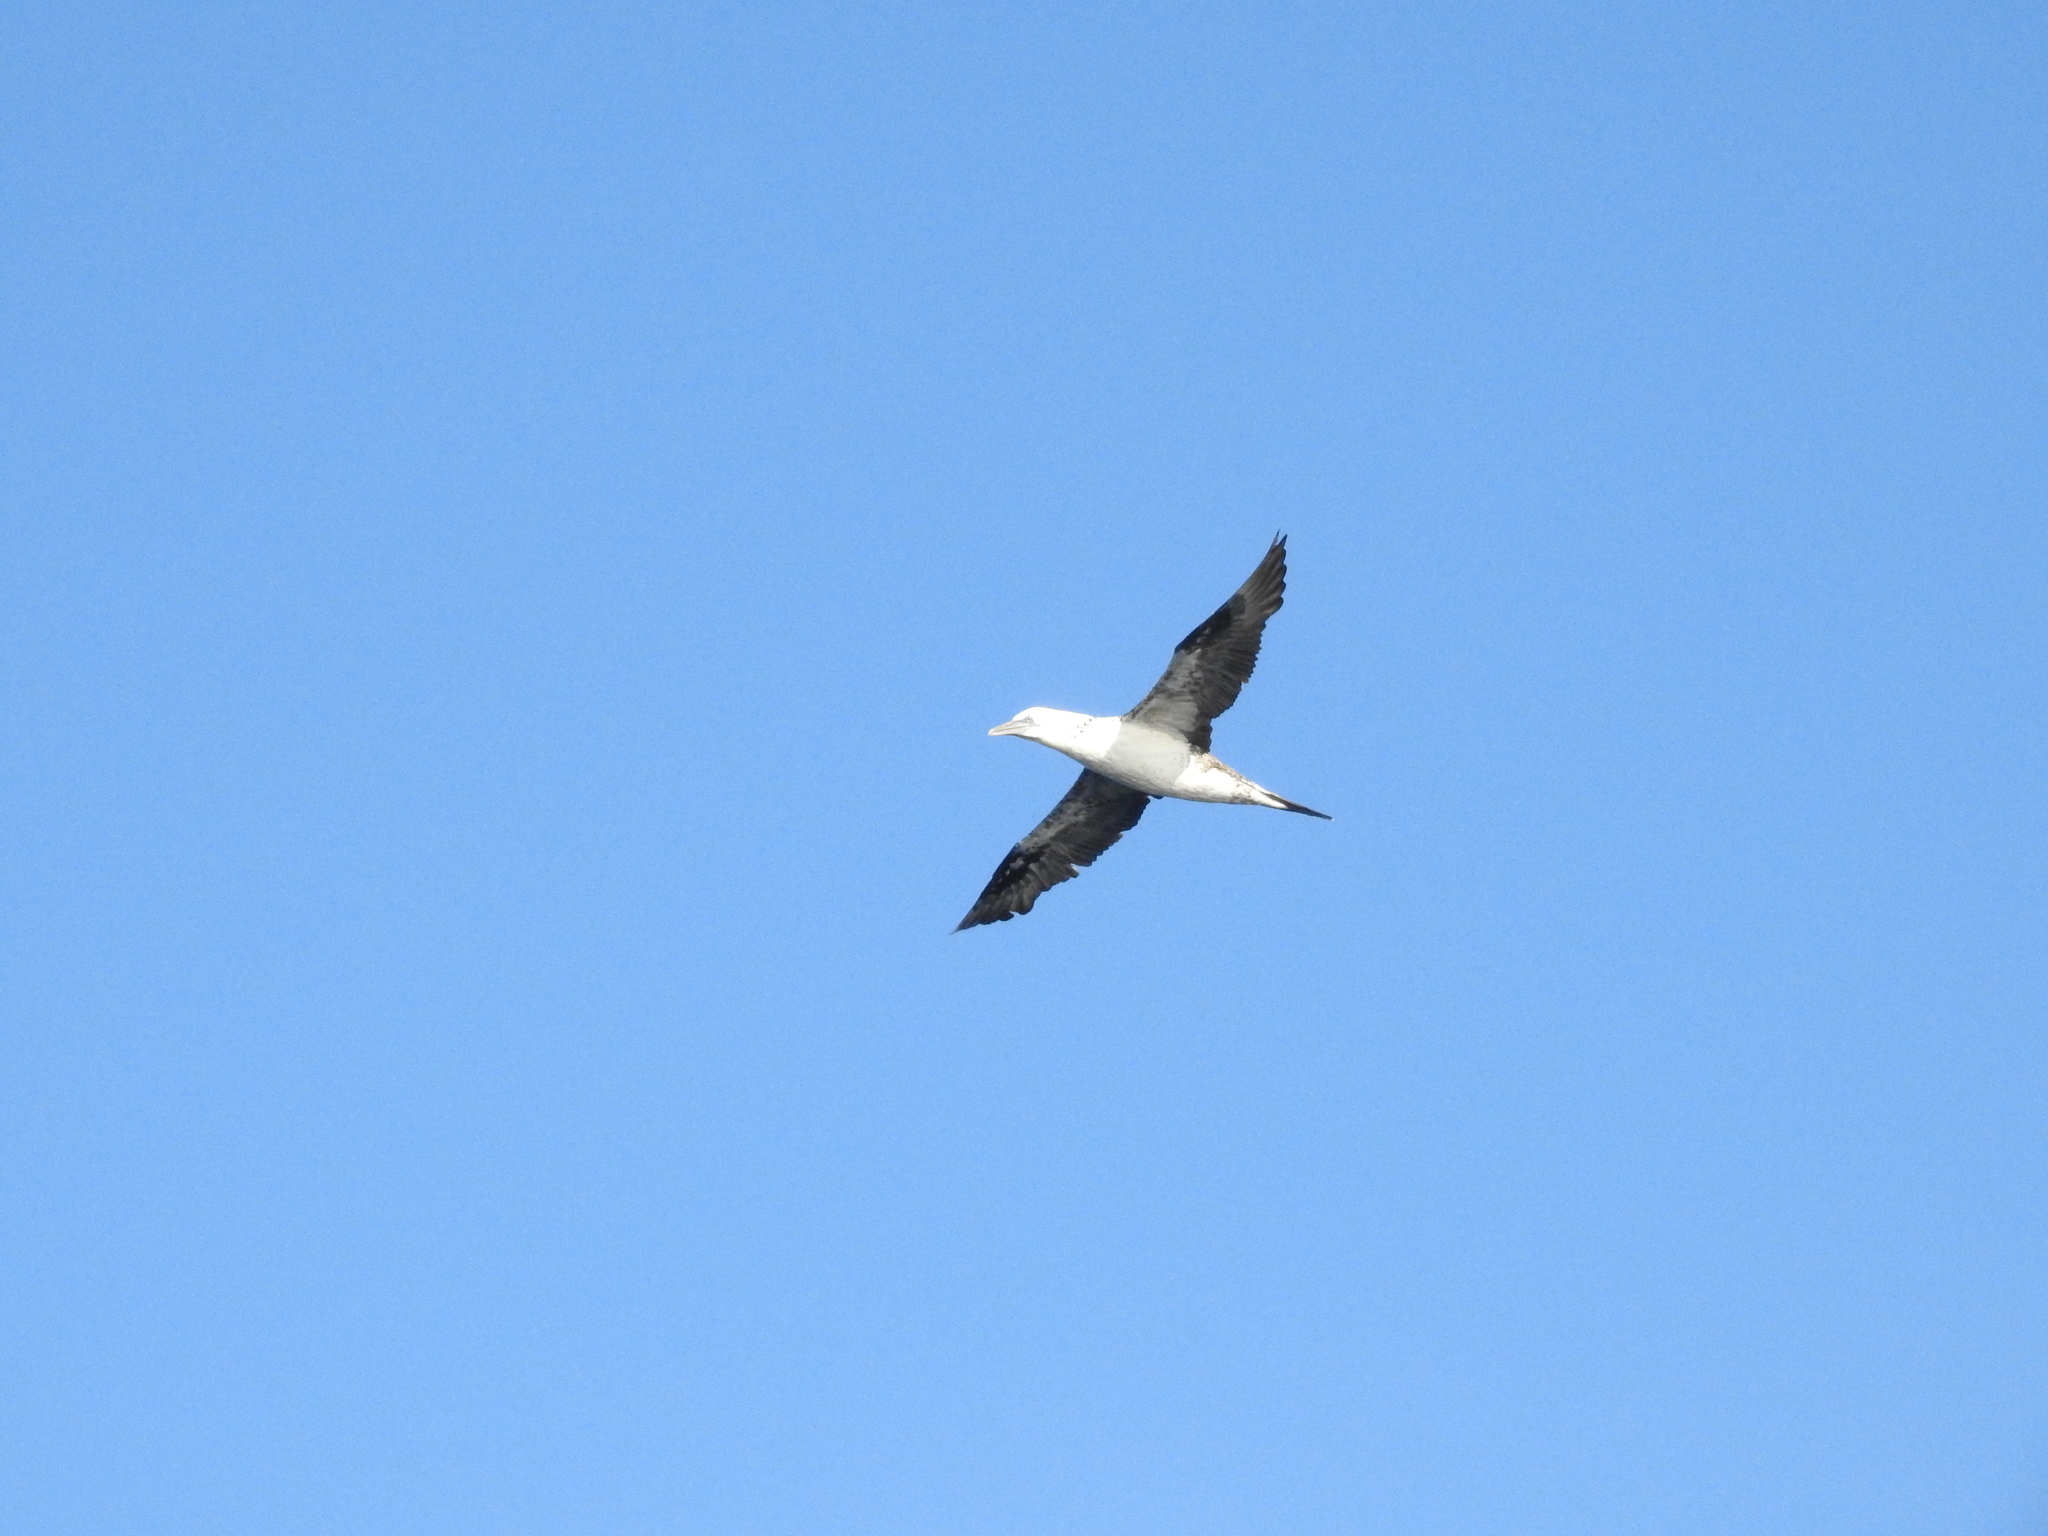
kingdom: Animalia
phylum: Chordata
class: Aves
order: Suliformes
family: Sulidae
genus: Morus
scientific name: Morus bassanus
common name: Northern gannet
